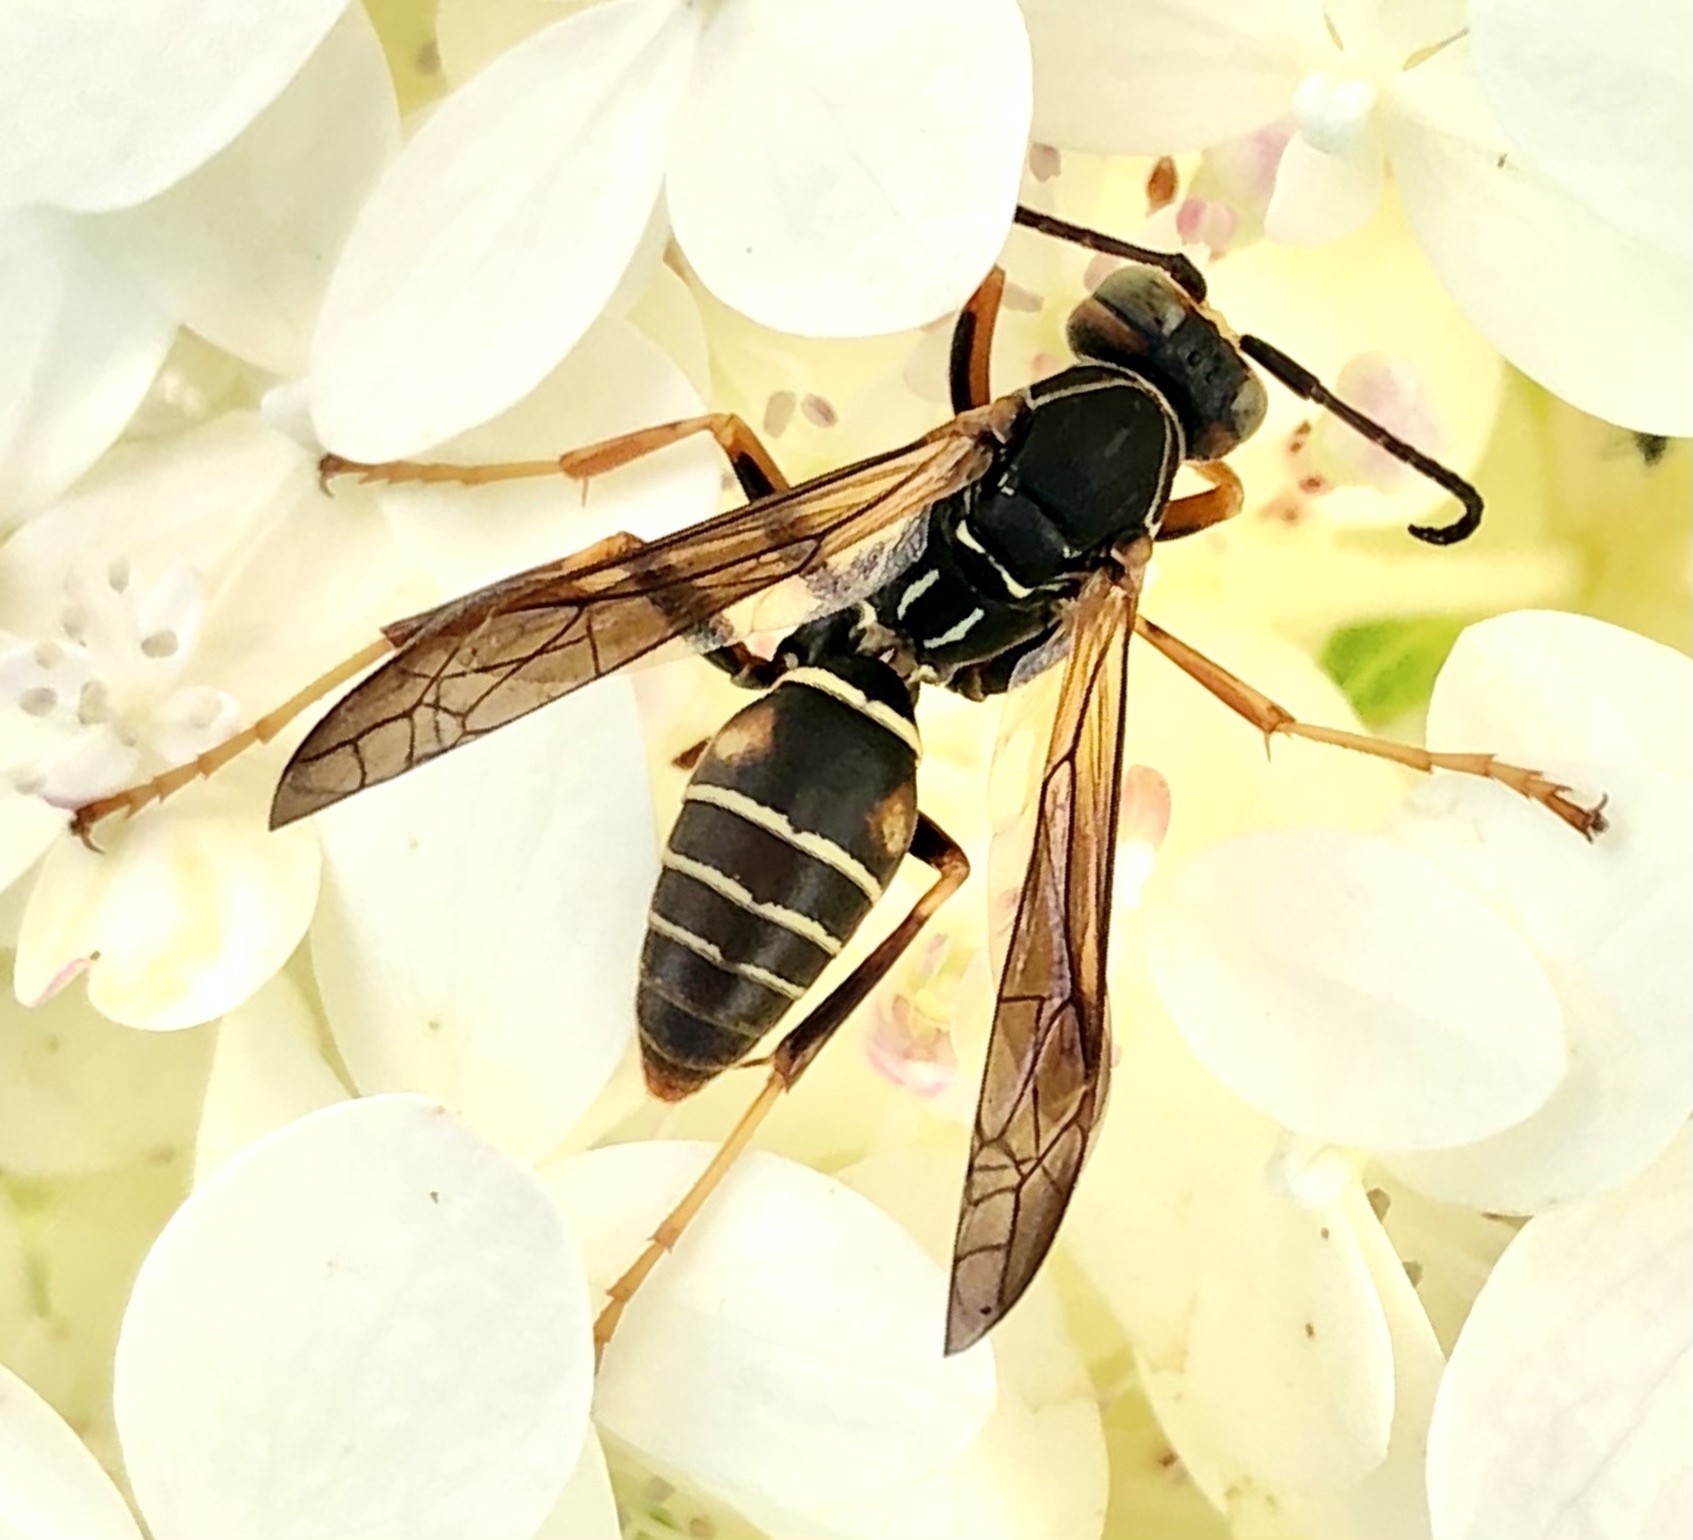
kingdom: Animalia
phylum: Arthropoda
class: Insecta
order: Hymenoptera
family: Eumenidae
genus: Polistes
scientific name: Polistes fuscatus
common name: Dark paper wasp
